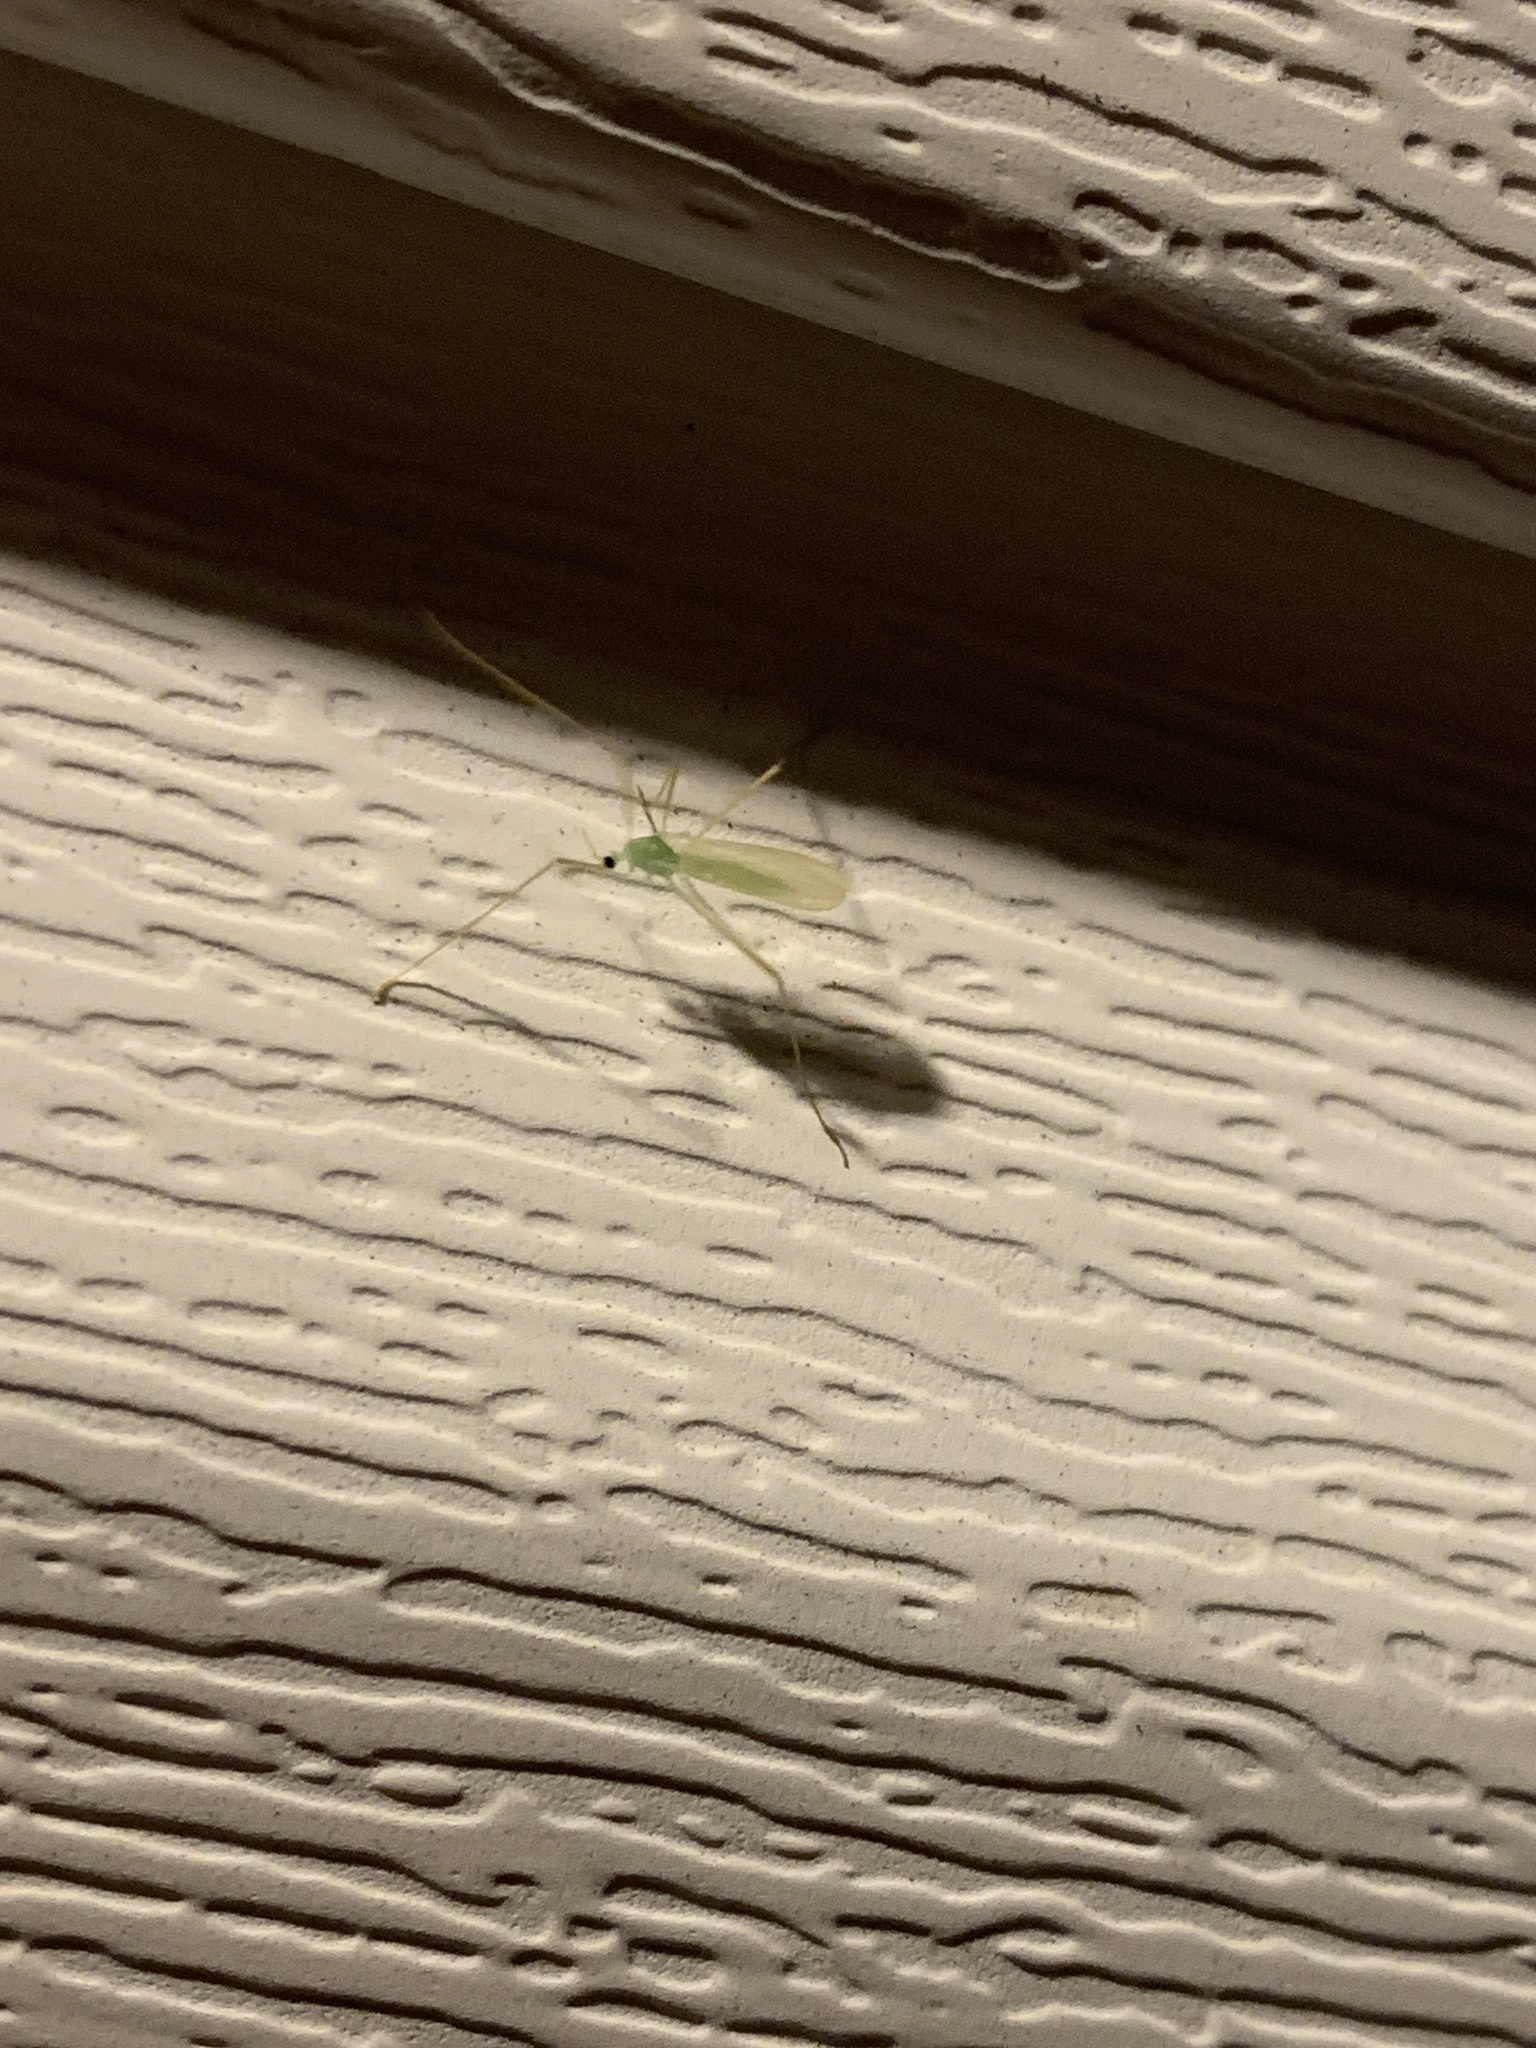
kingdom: Animalia
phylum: Arthropoda
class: Insecta
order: Diptera
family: Limoniidae
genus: Erioptera
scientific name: Erioptera
